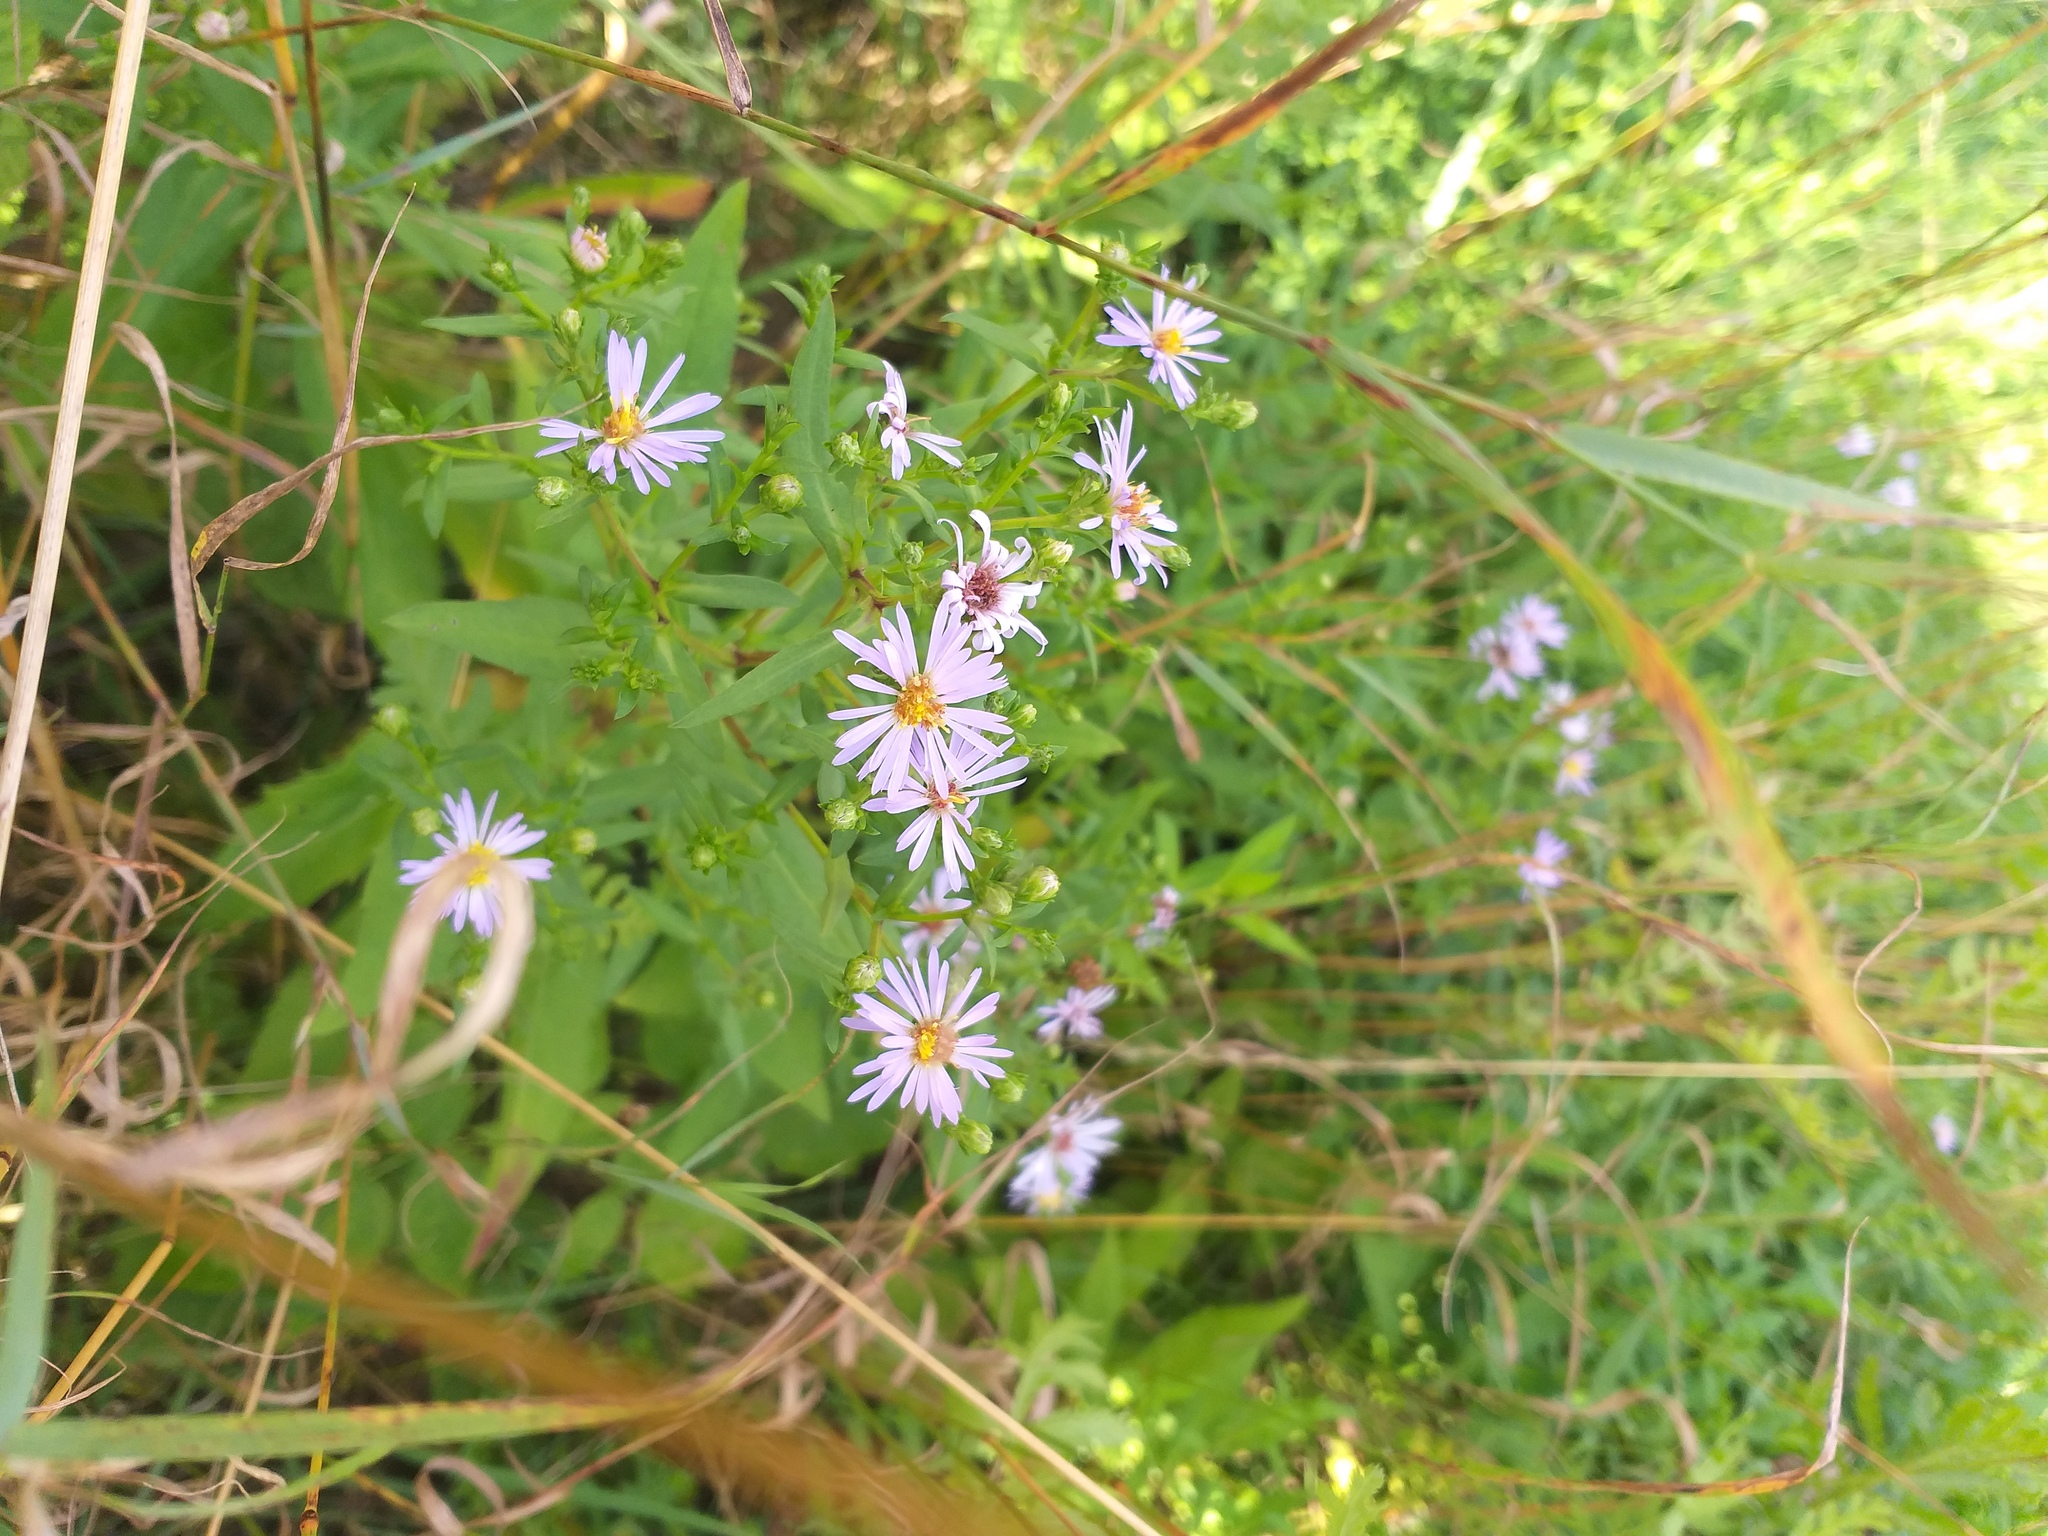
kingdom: Plantae
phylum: Tracheophyta
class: Magnoliopsida
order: Asterales
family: Asteraceae
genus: Symphyotrichum
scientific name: Symphyotrichum novi-belgii
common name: Michaelmas daisy
